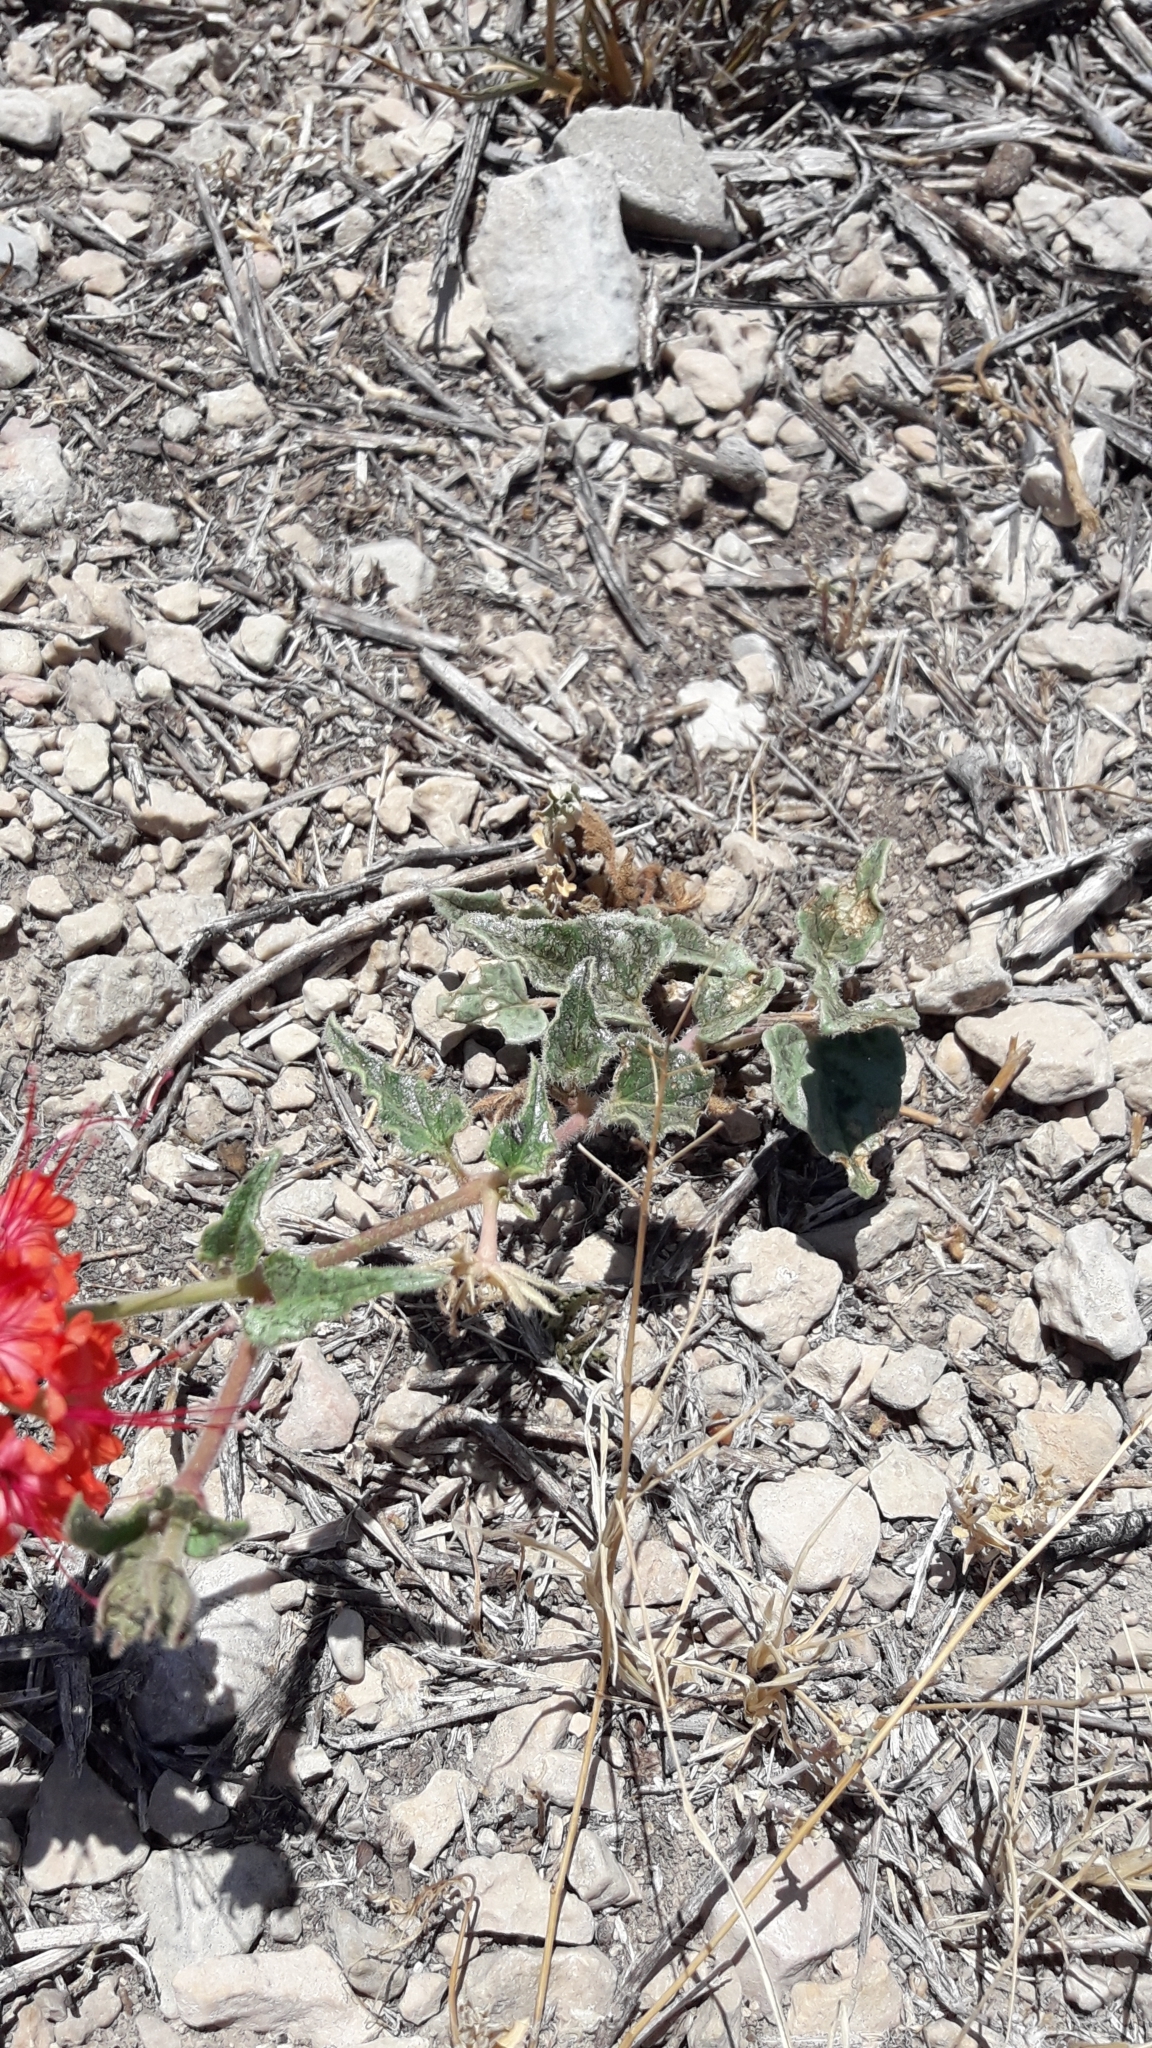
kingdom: Plantae
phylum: Tracheophyta
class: Magnoliopsida
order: Caryophyllales
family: Nyctaginaceae
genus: Nyctaginia
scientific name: Nyctaginia capitata
